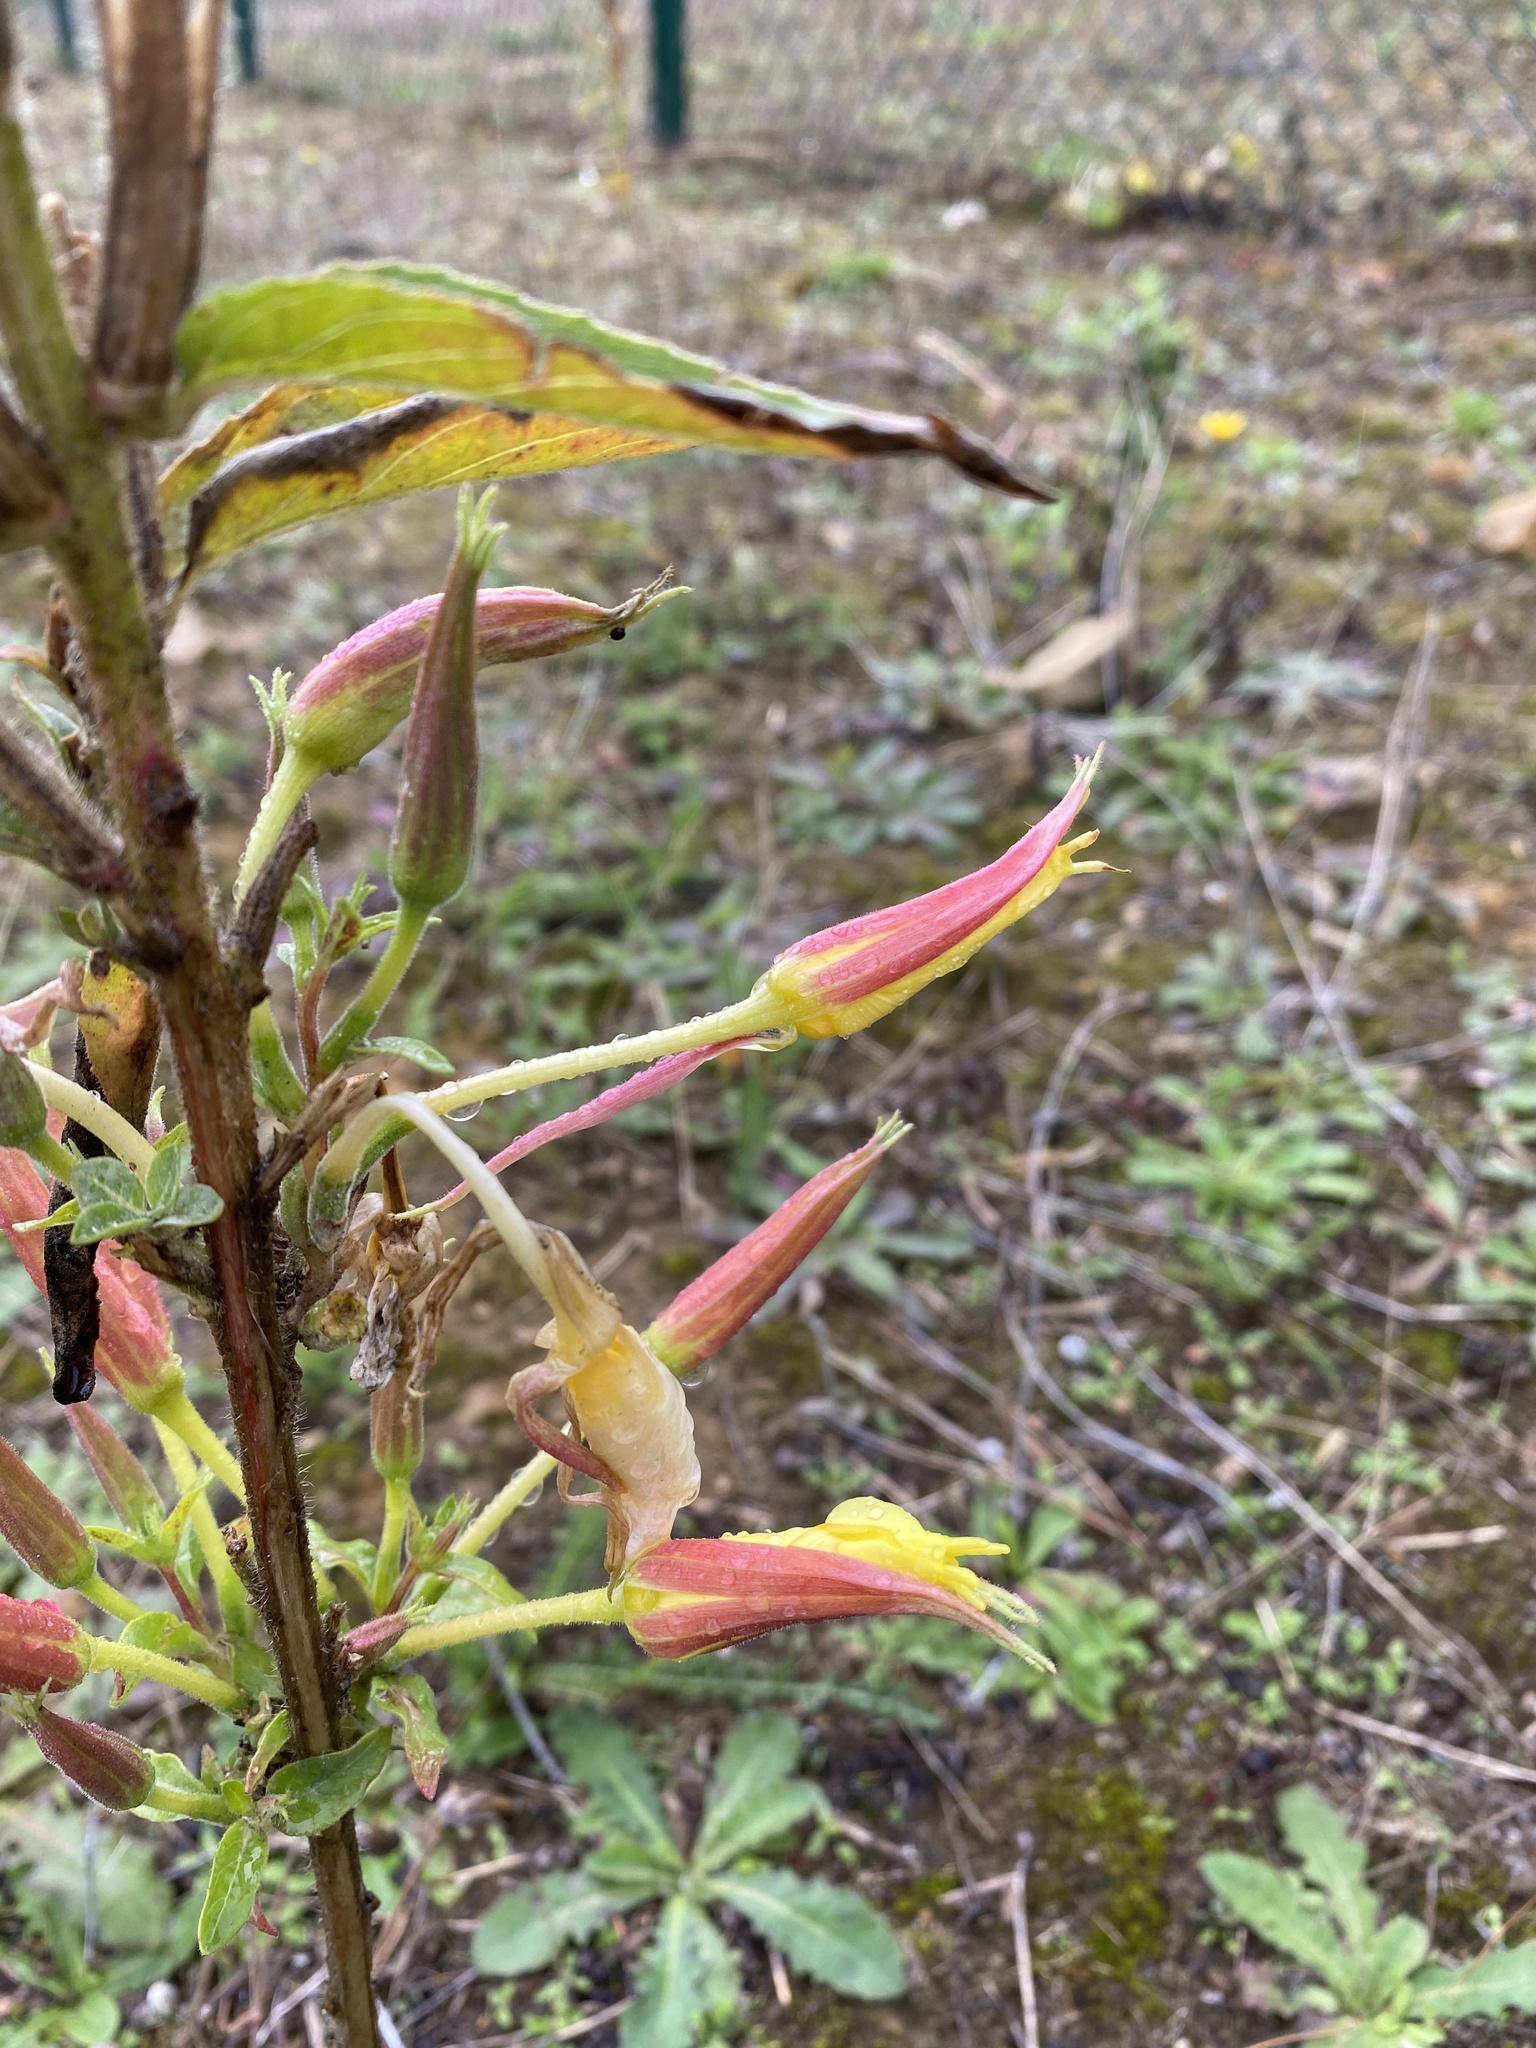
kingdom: Plantae
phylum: Tracheophyta
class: Magnoliopsida
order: Myrtales
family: Onagraceae
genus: Oenothera
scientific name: Oenothera glazioviana
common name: Large-flowered evening-primrose
